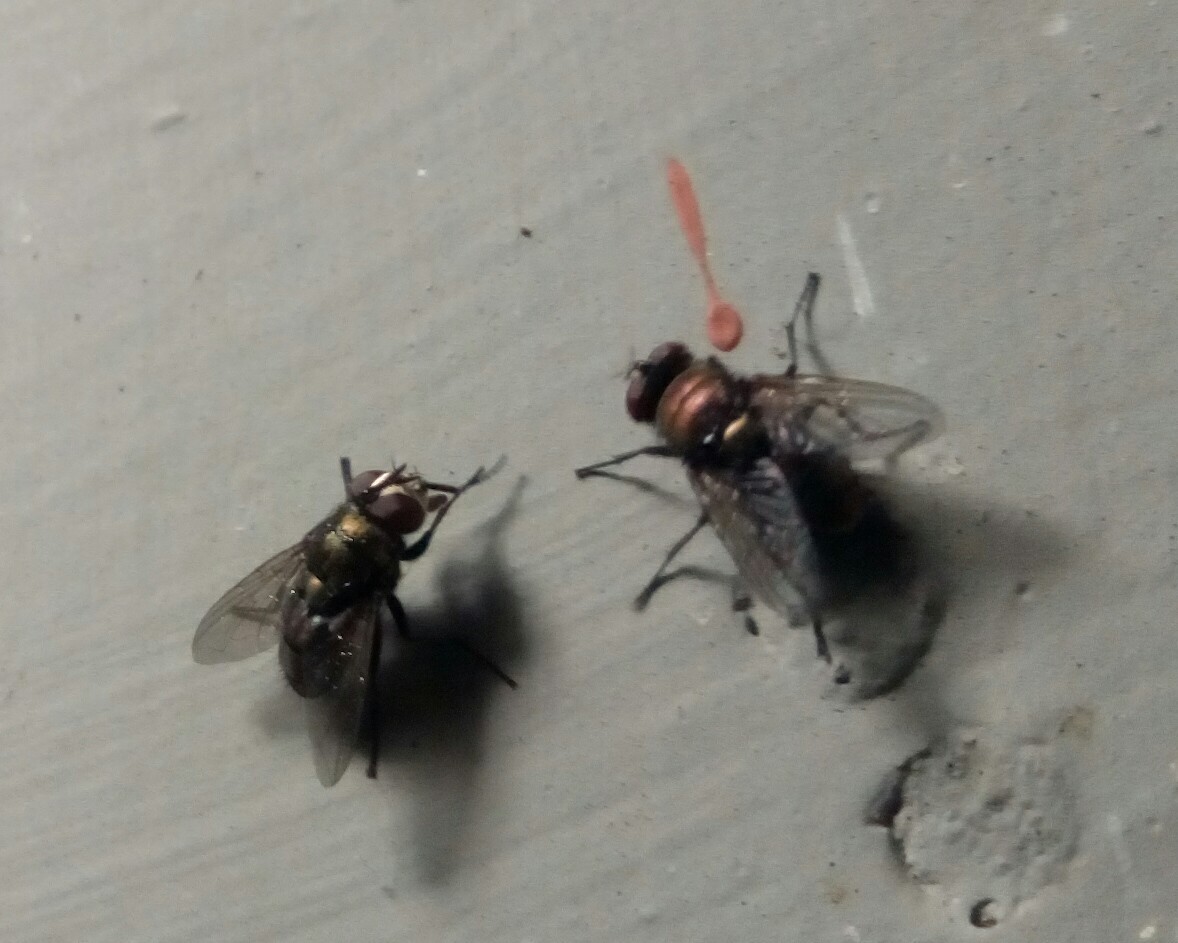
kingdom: Animalia
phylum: Arthropoda
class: Insecta
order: Diptera
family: Calliphoridae
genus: Lucilia
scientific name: Lucilia cuprina
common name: Sheep blow fly
